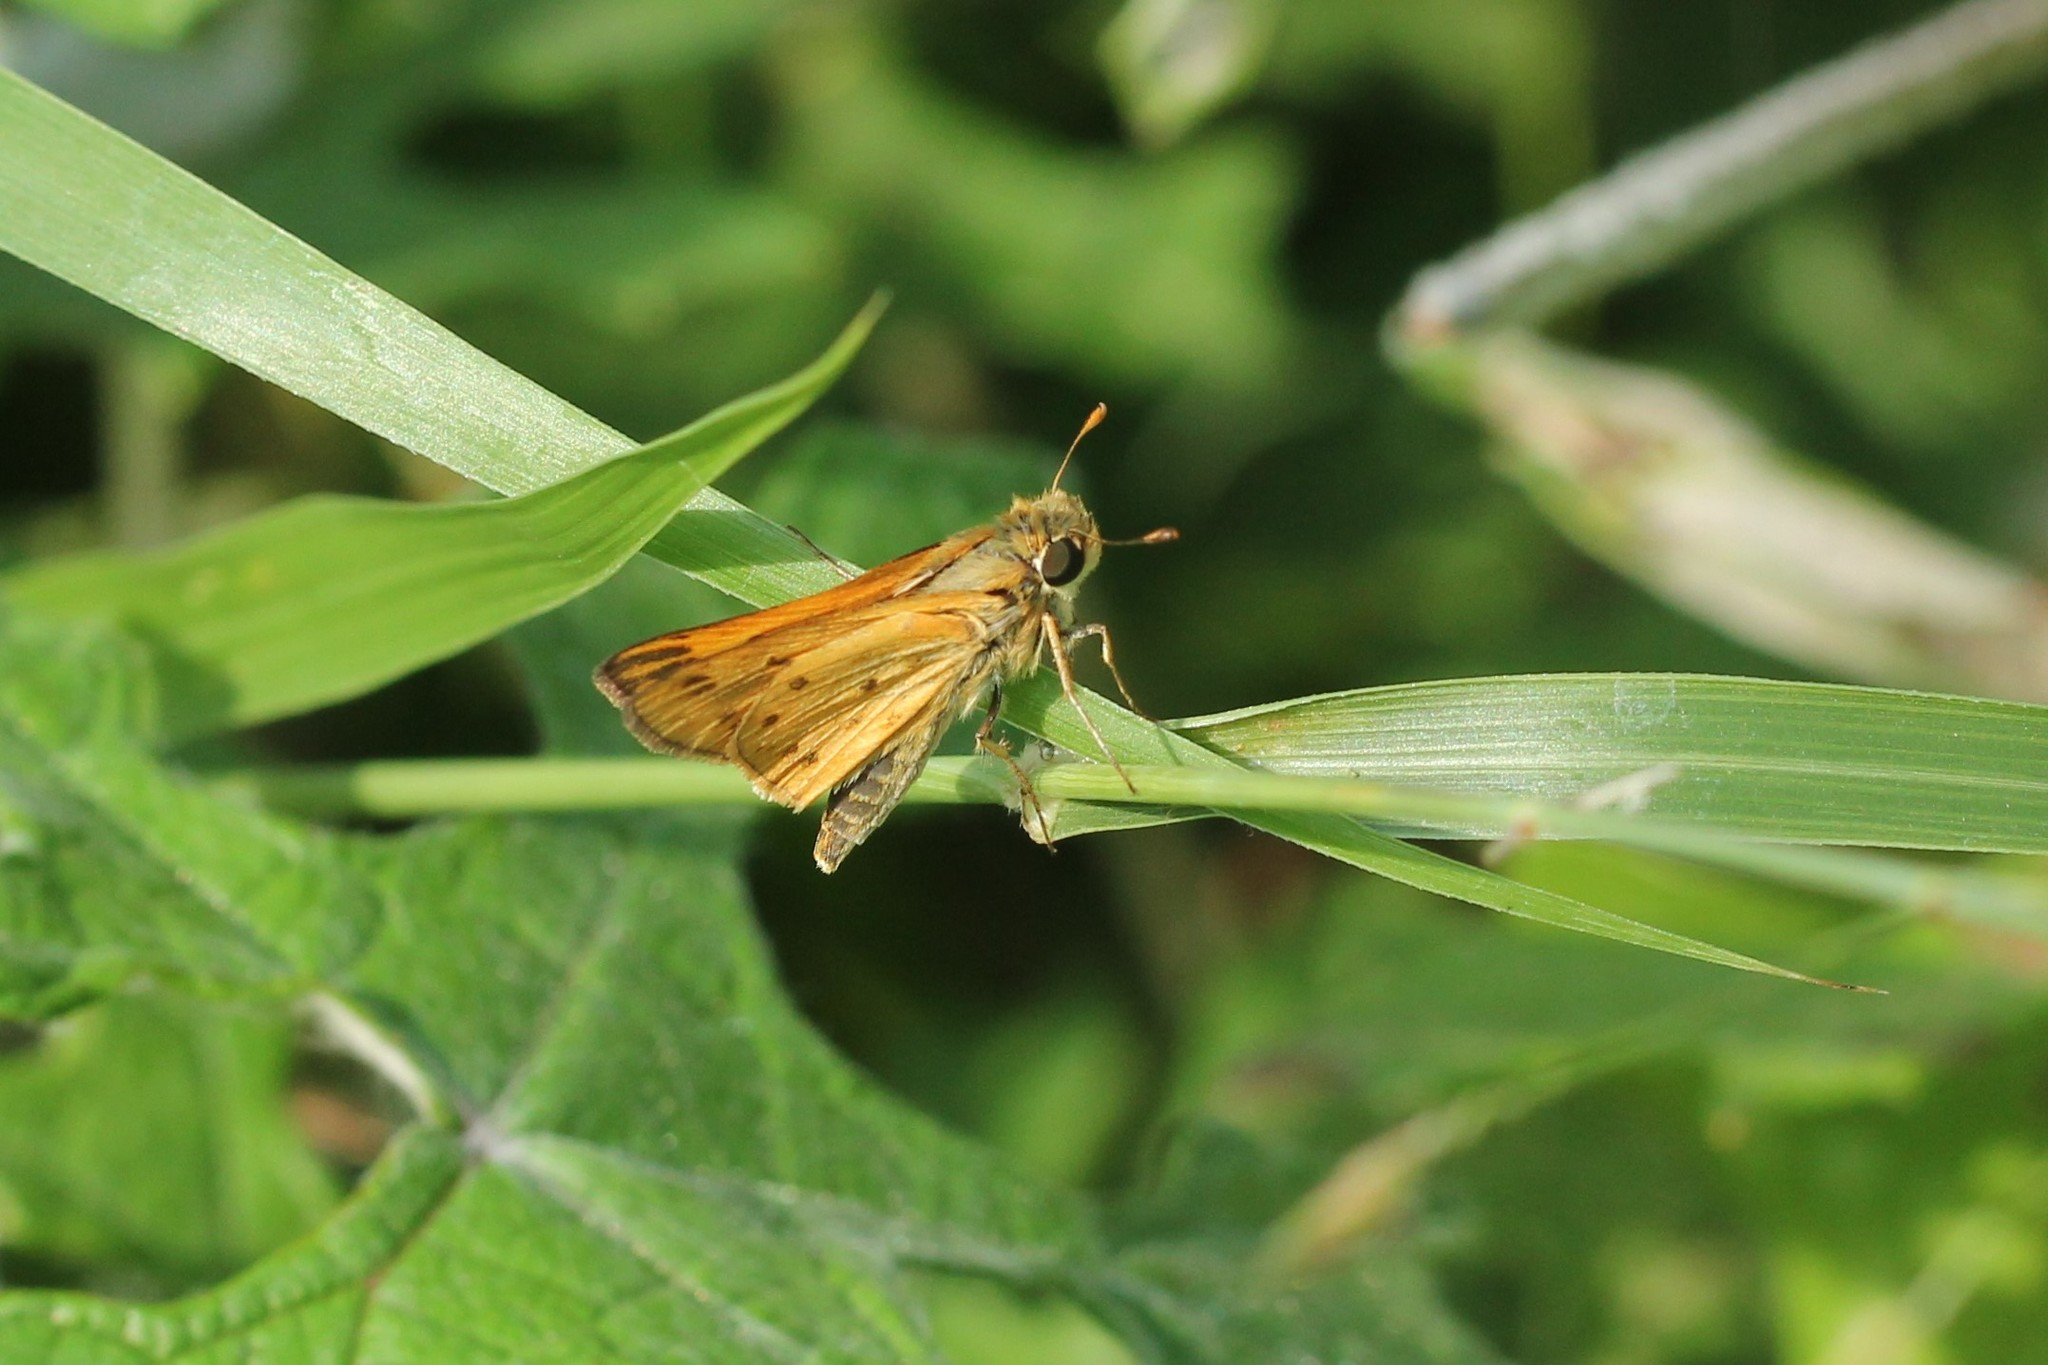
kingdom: Animalia
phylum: Arthropoda
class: Insecta
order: Lepidoptera
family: Hesperiidae
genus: Hylephila
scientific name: Hylephila phyleus
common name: Fiery skipper
